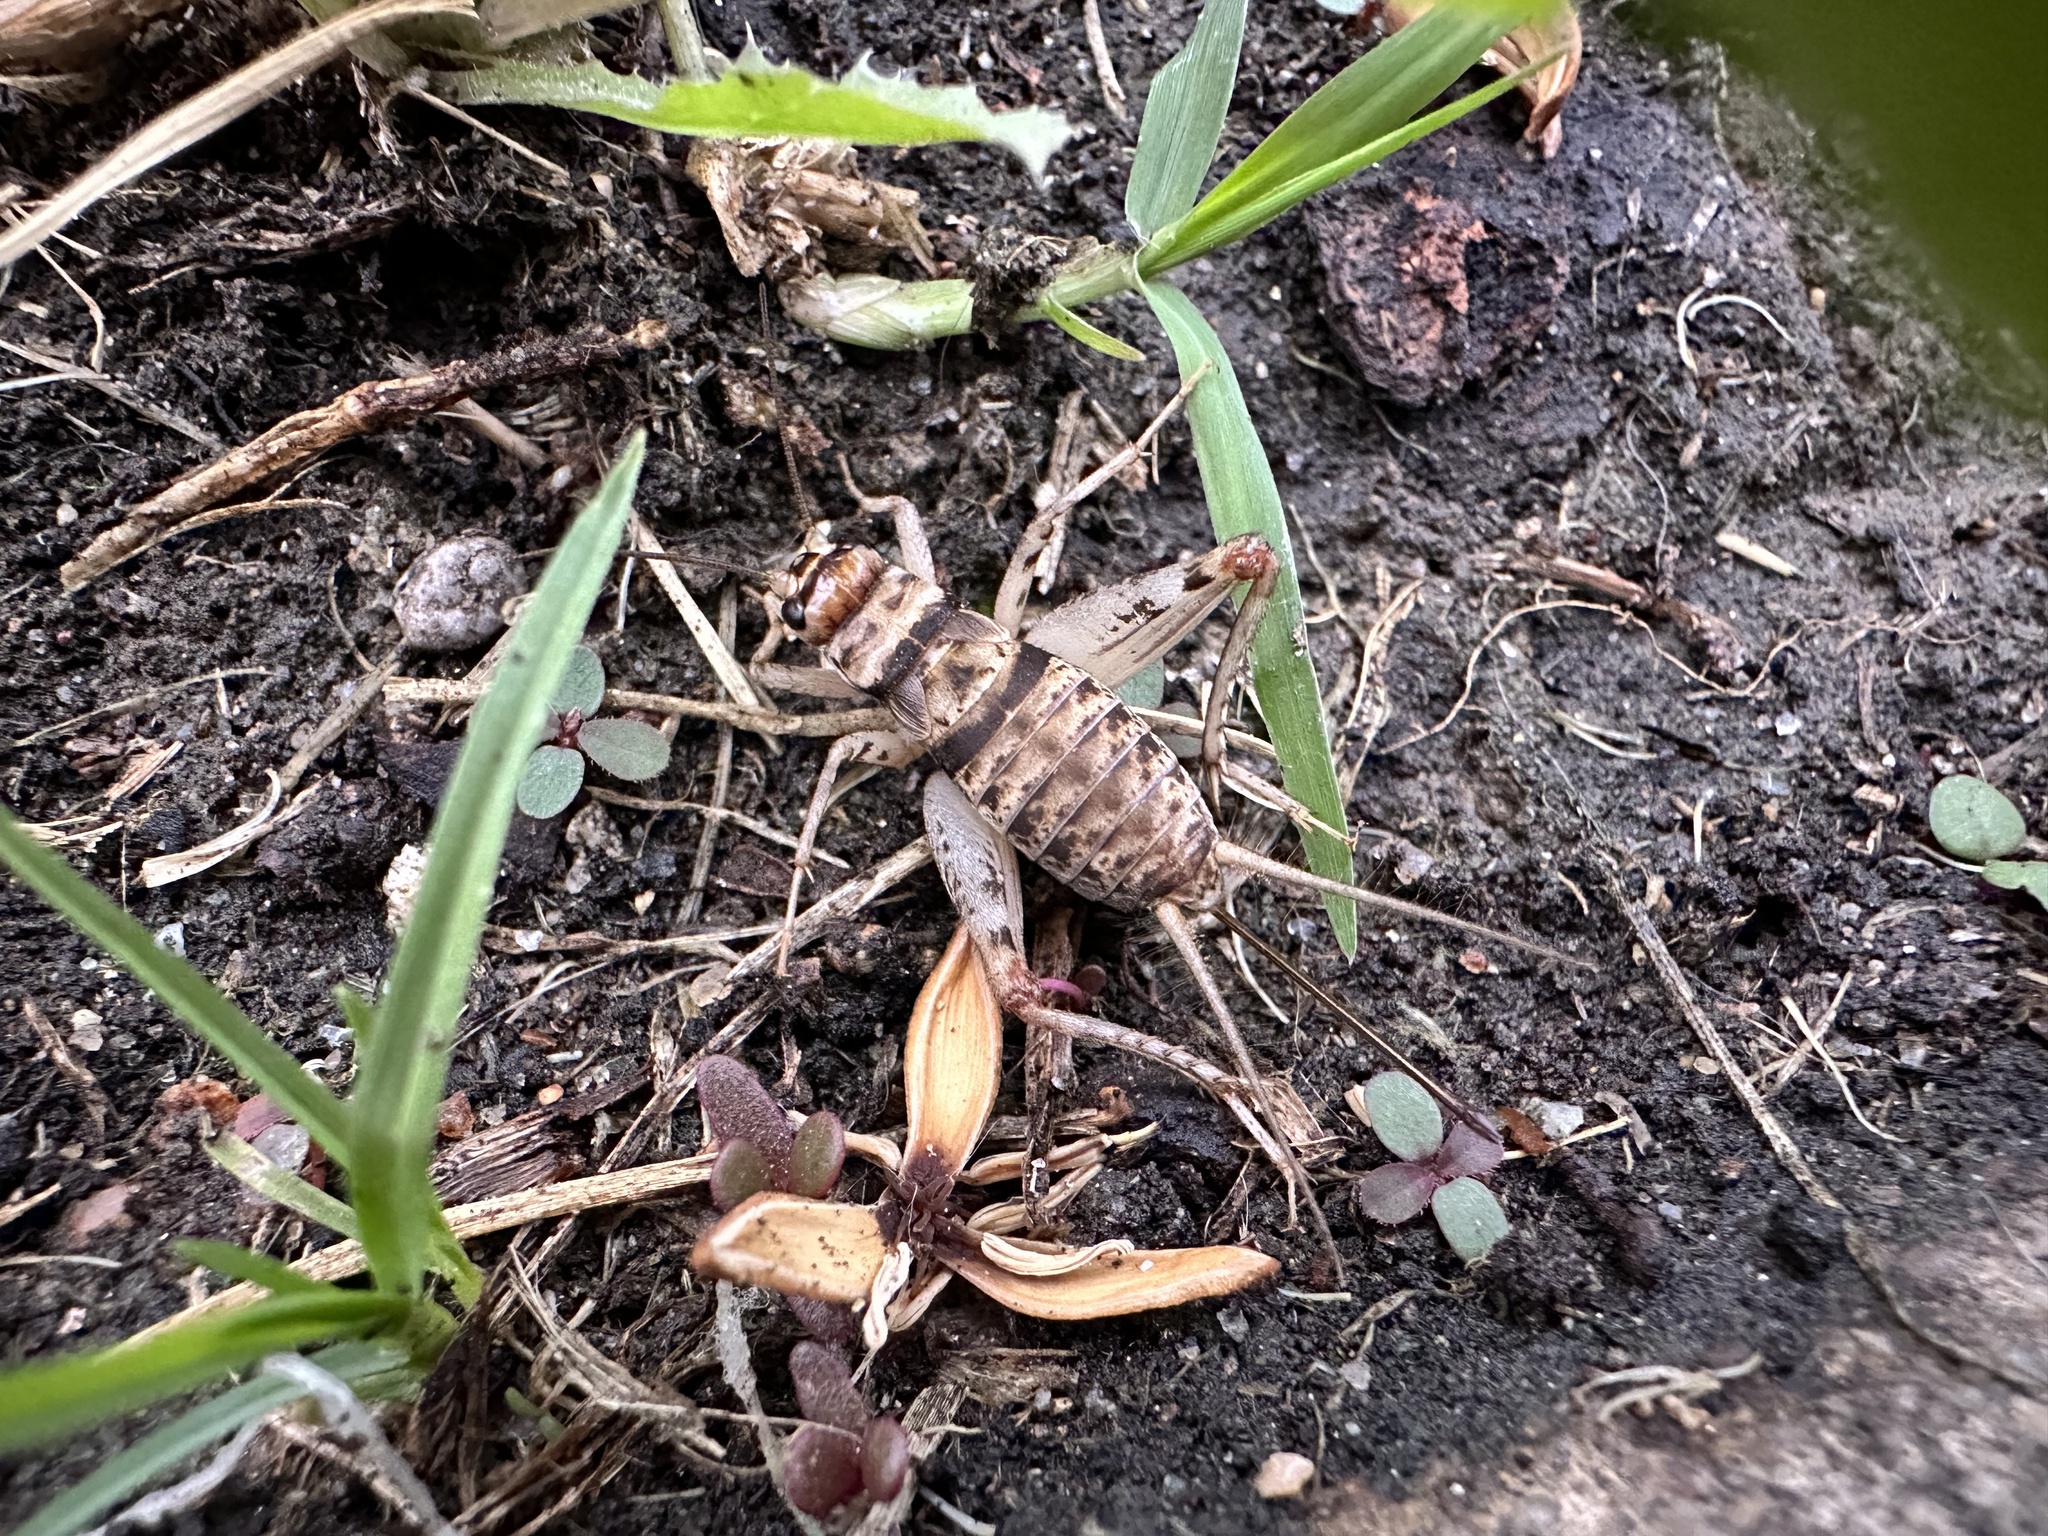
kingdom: Animalia
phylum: Arthropoda
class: Insecta
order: Orthoptera
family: Gryllidae
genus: Gryllodes
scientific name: Gryllodes sigillatus
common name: Tropical house cricket
